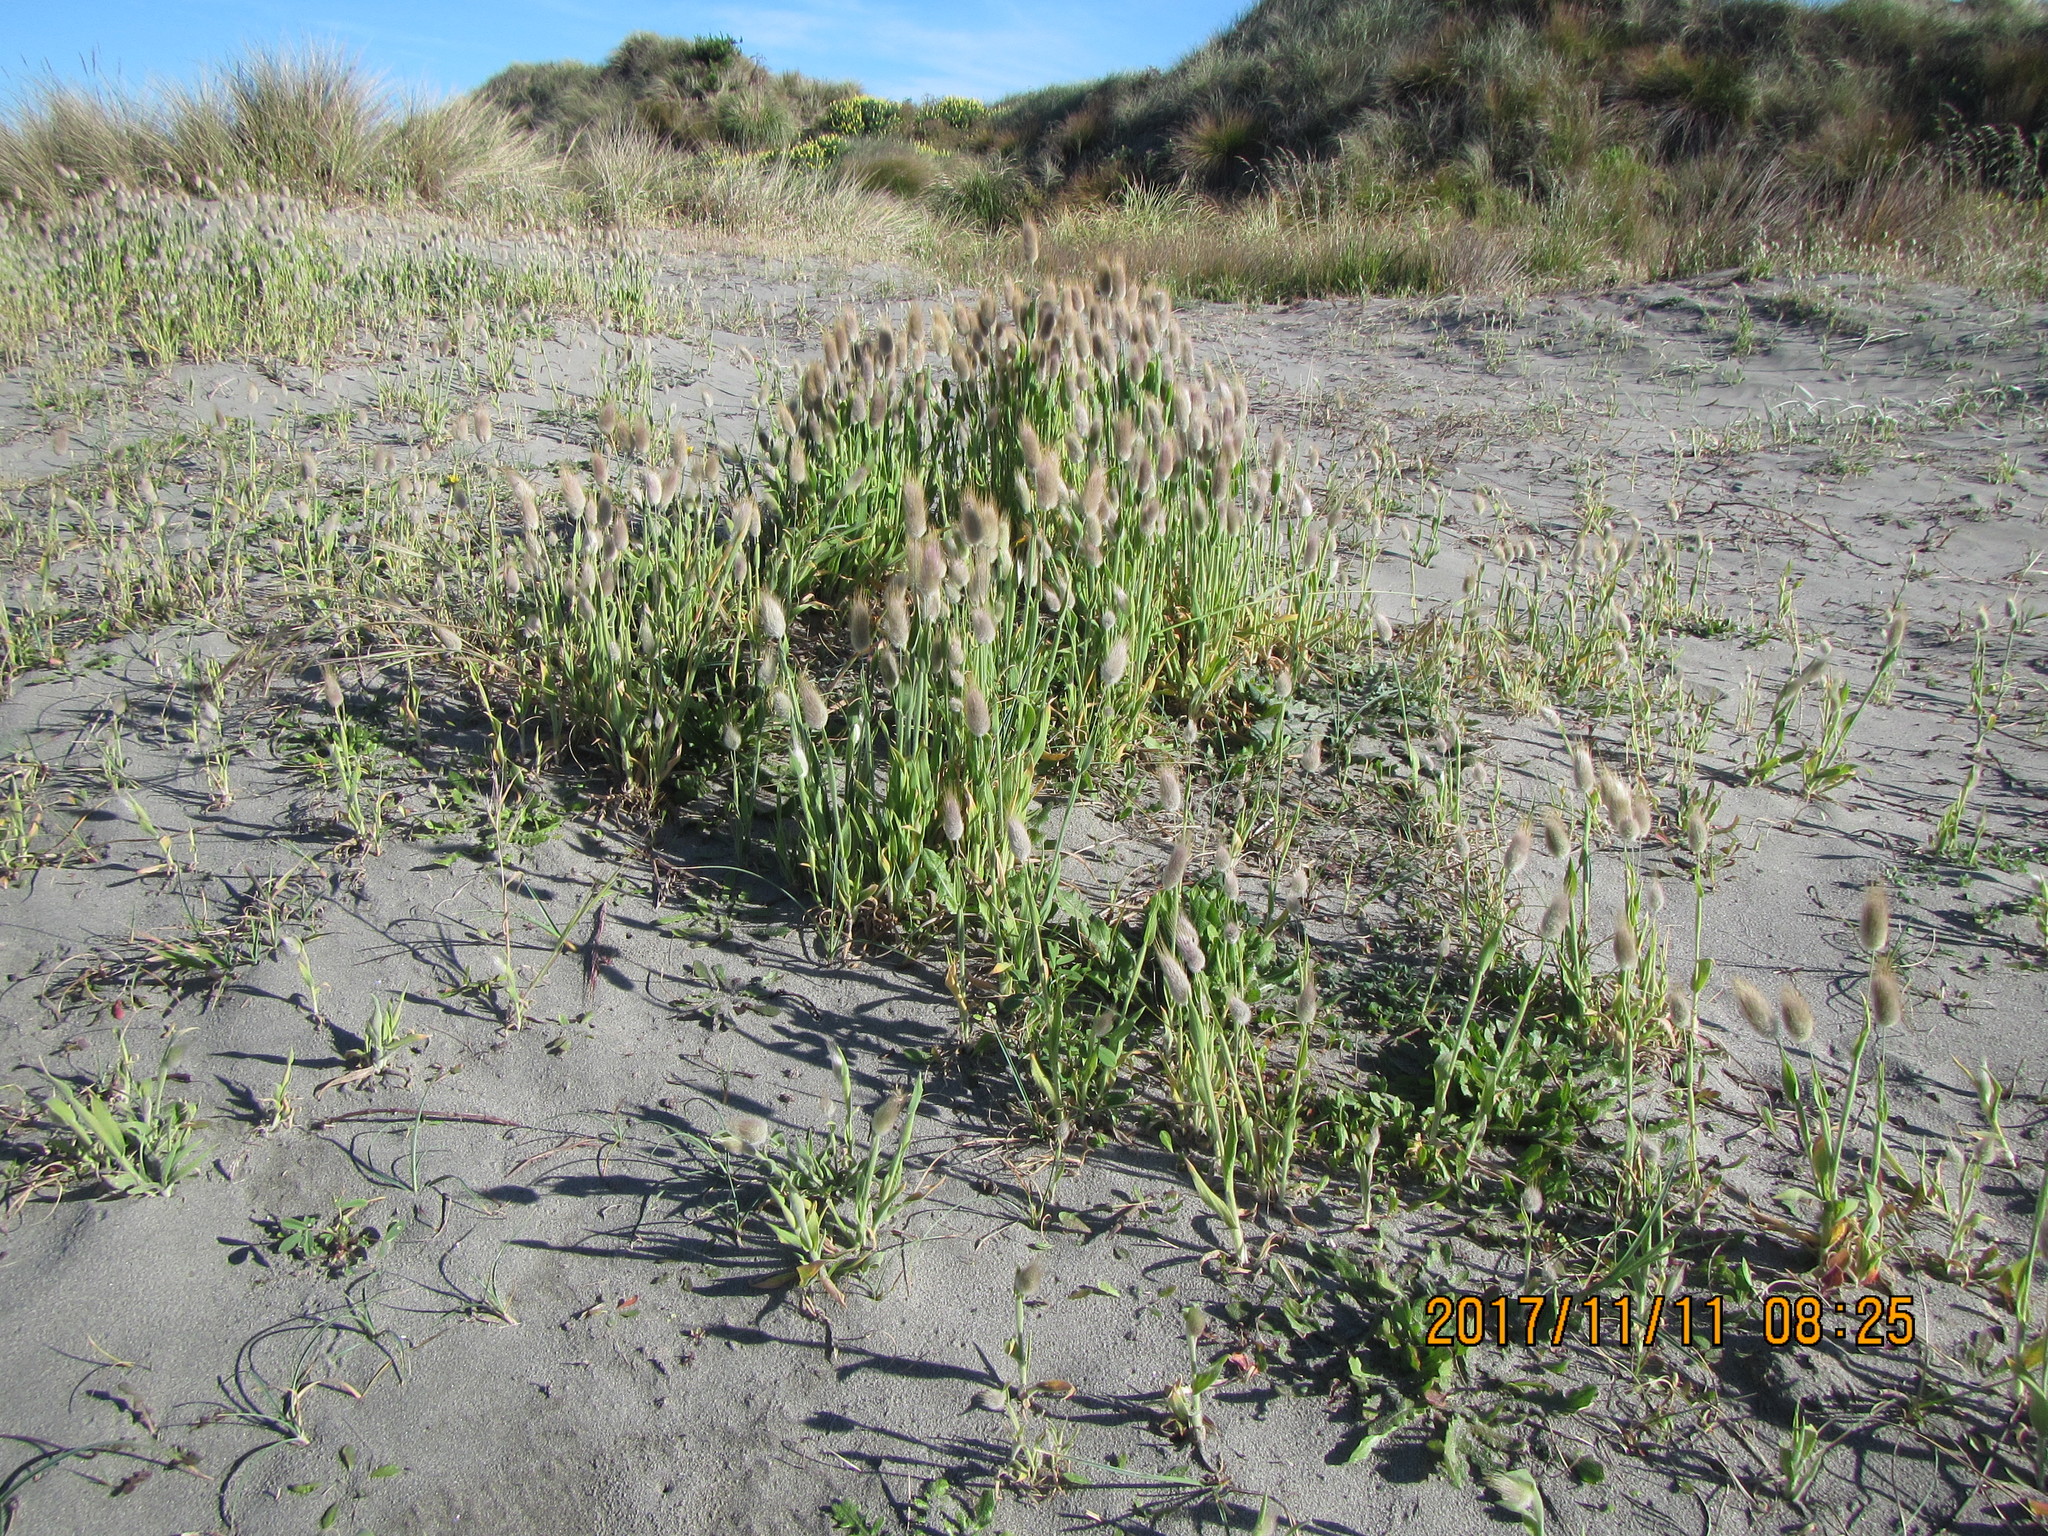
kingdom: Plantae
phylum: Tracheophyta
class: Liliopsida
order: Poales
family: Poaceae
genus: Lagurus
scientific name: Lagurus ovatus
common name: Hare's-tail
